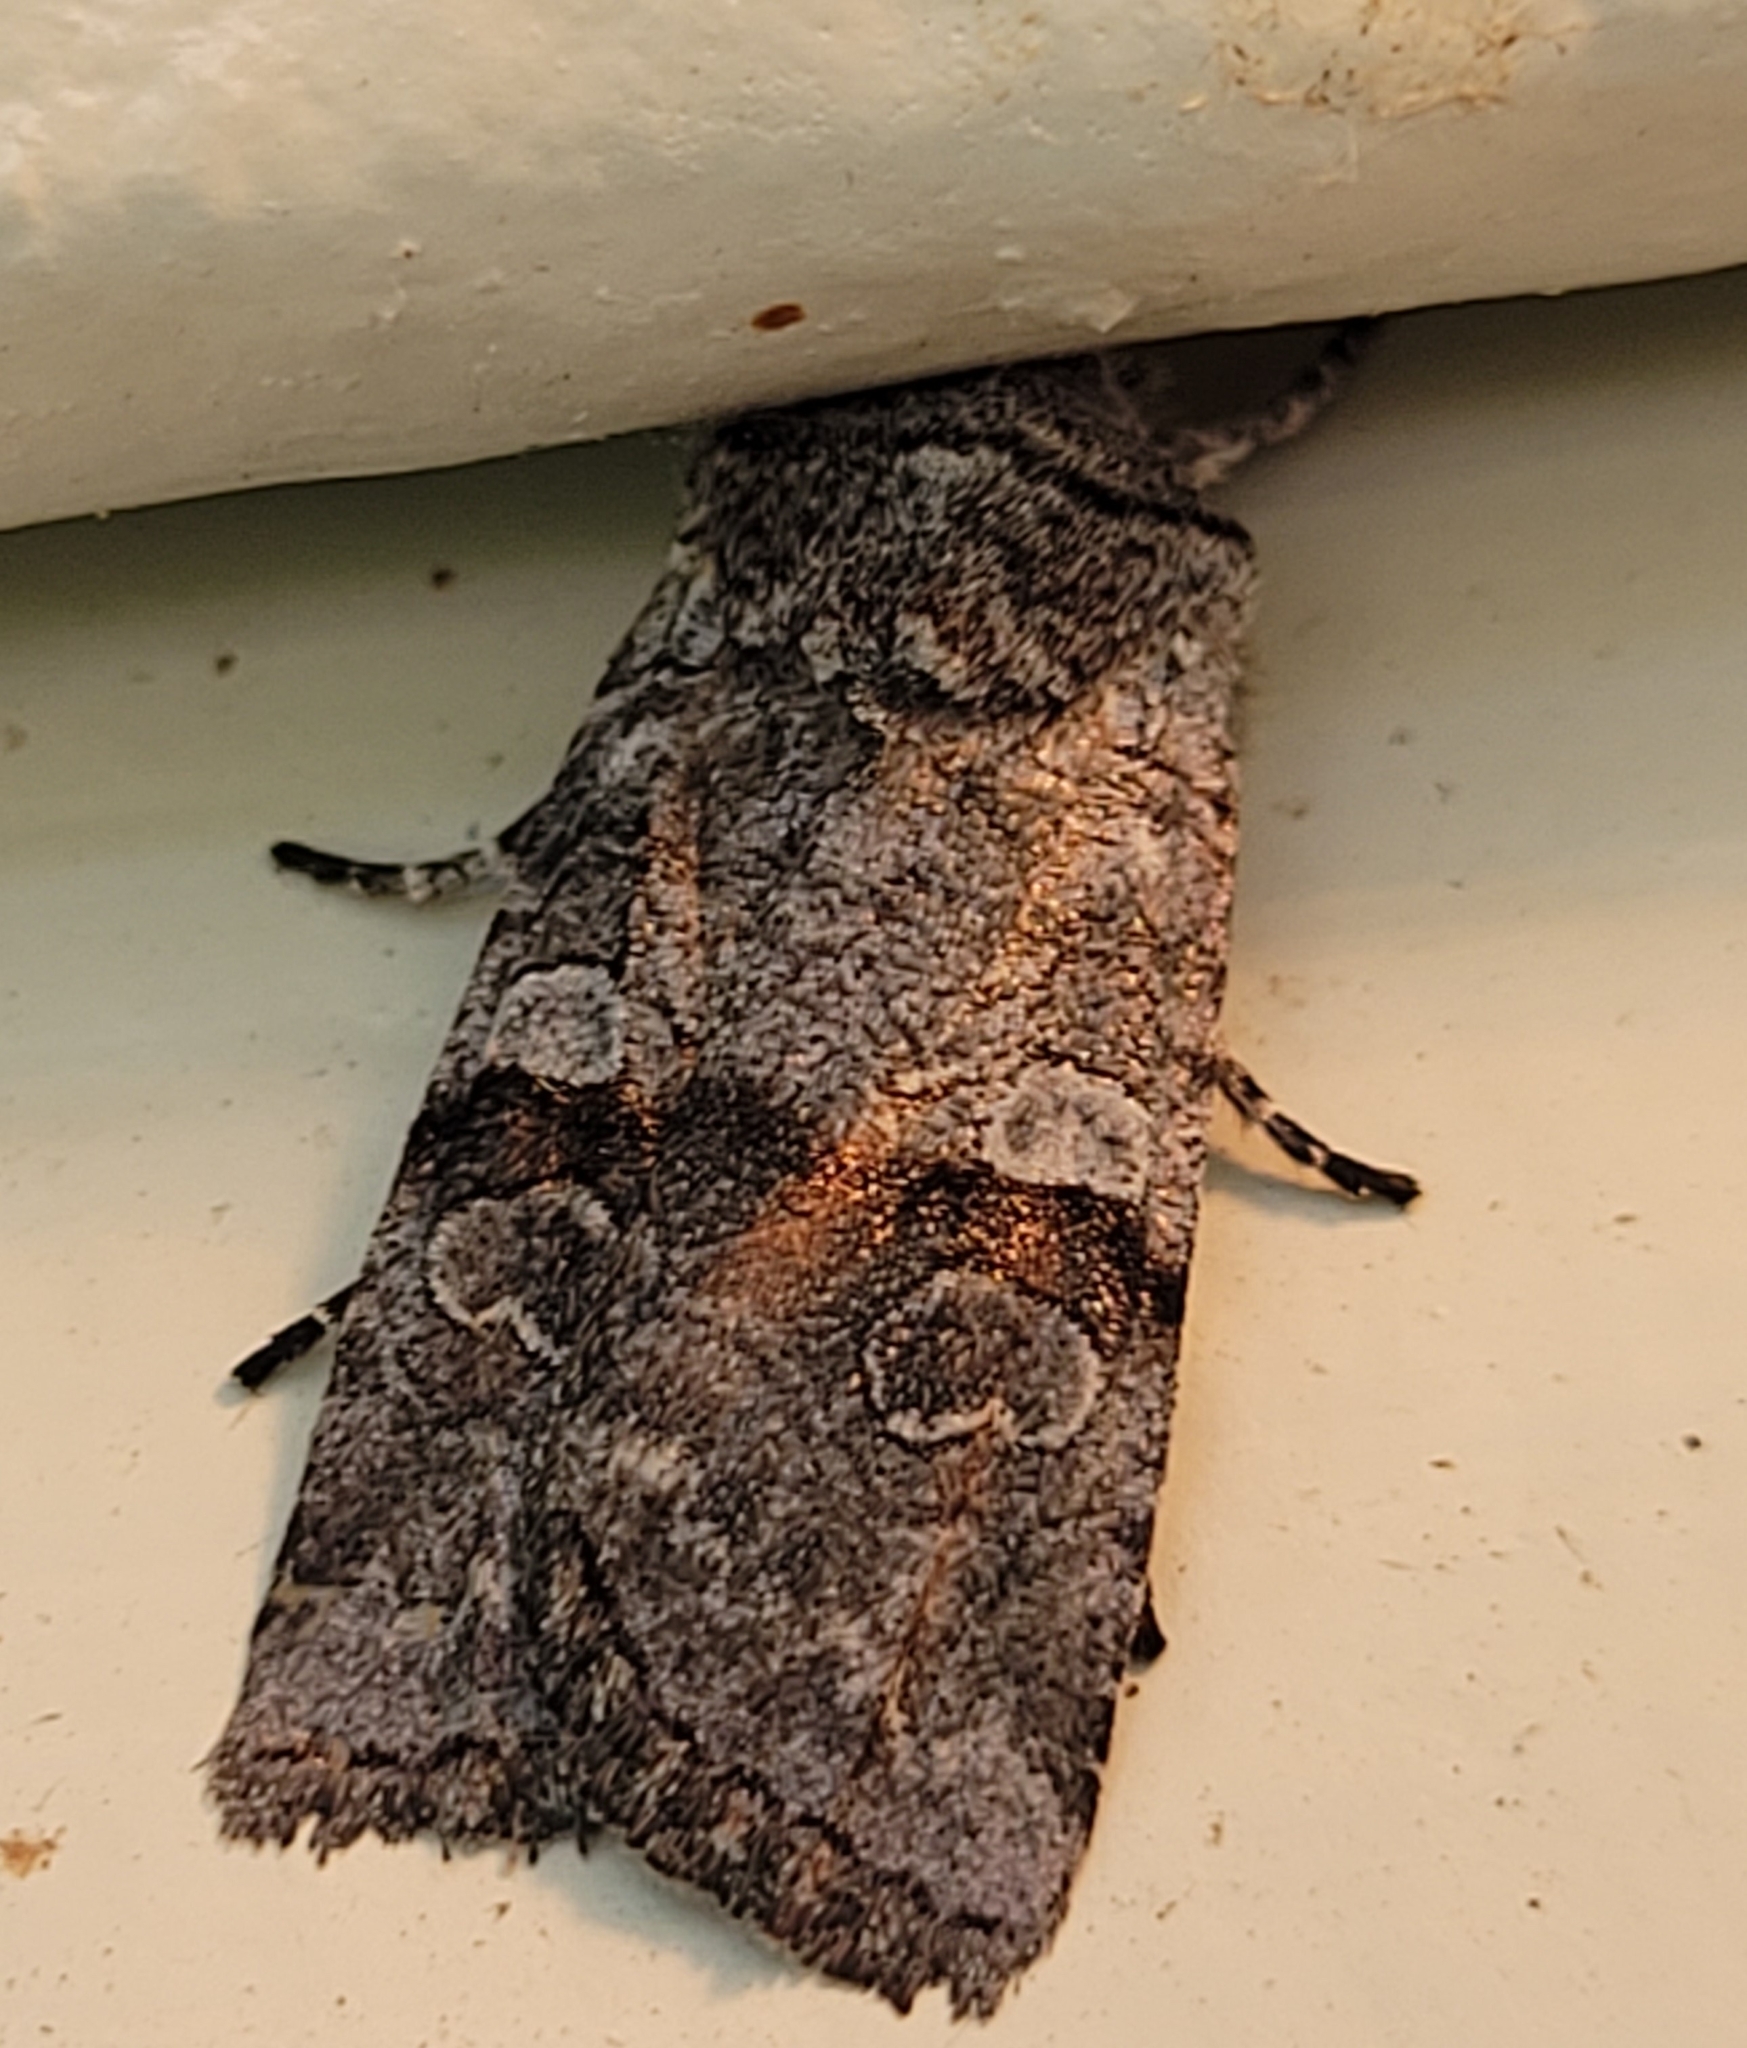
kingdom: Animalia
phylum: Arthropoda
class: Insecta
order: Lepidoptera
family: Noctuidae
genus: Litholomia
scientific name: Litholomia napaea
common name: False pinion moth
